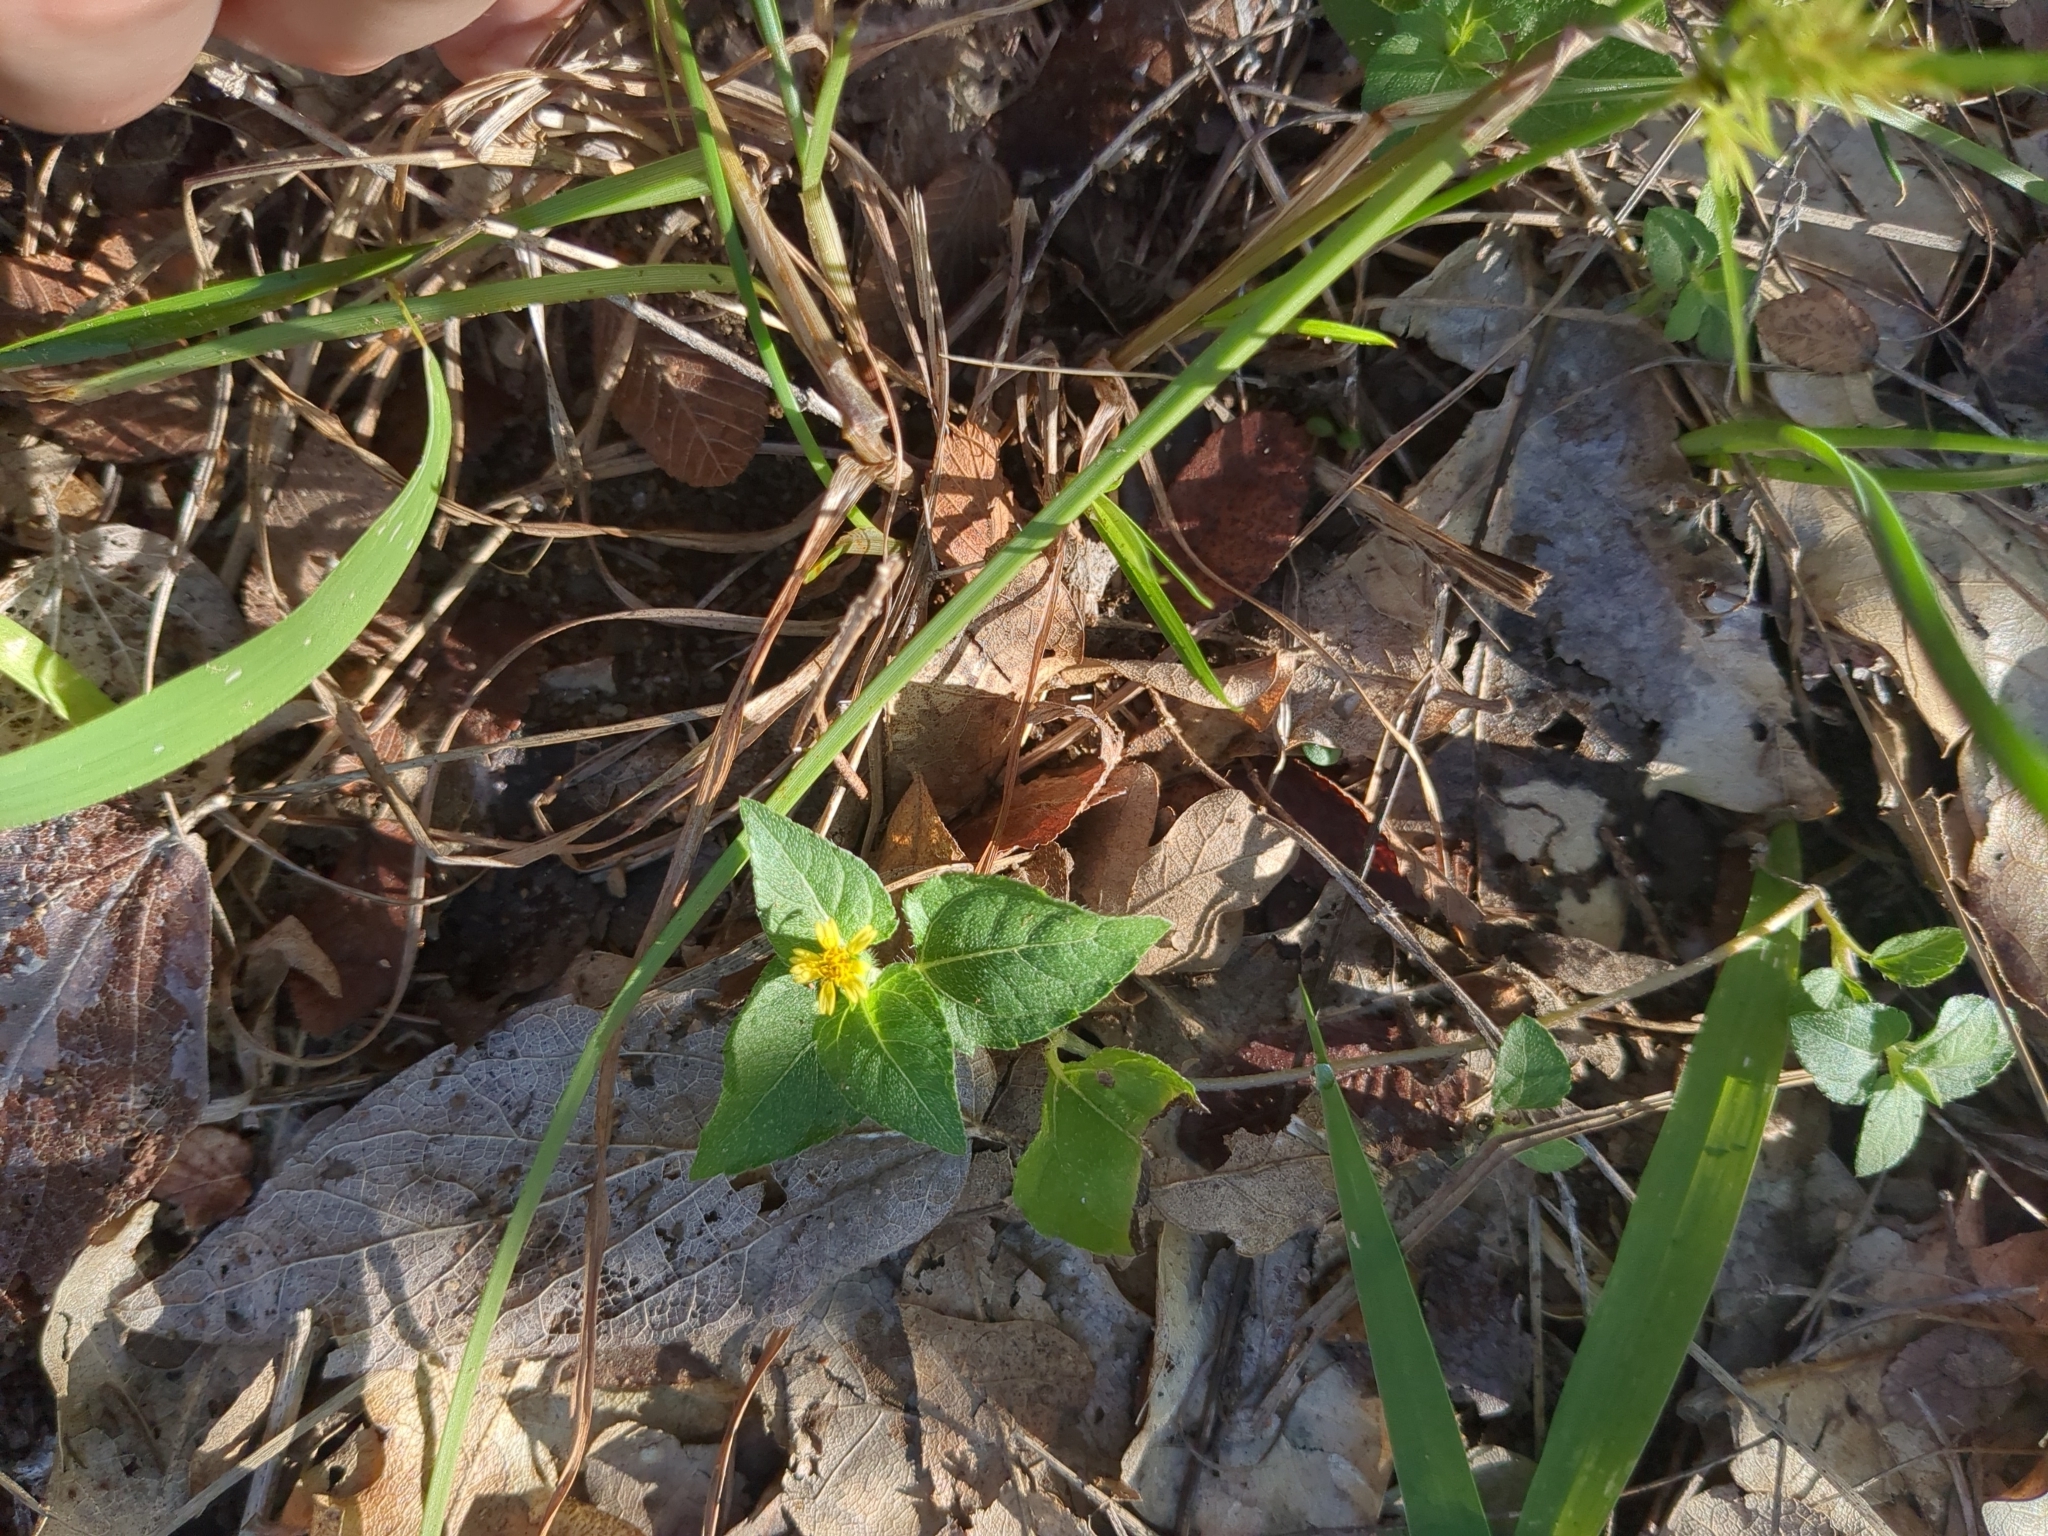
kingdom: Plantae
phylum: Tracheophyta
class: Magnoliopsida
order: Asterales
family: Asteraceae
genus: Calyptocarpus
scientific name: Calyptocarpus vialis
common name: Straggler daisy
